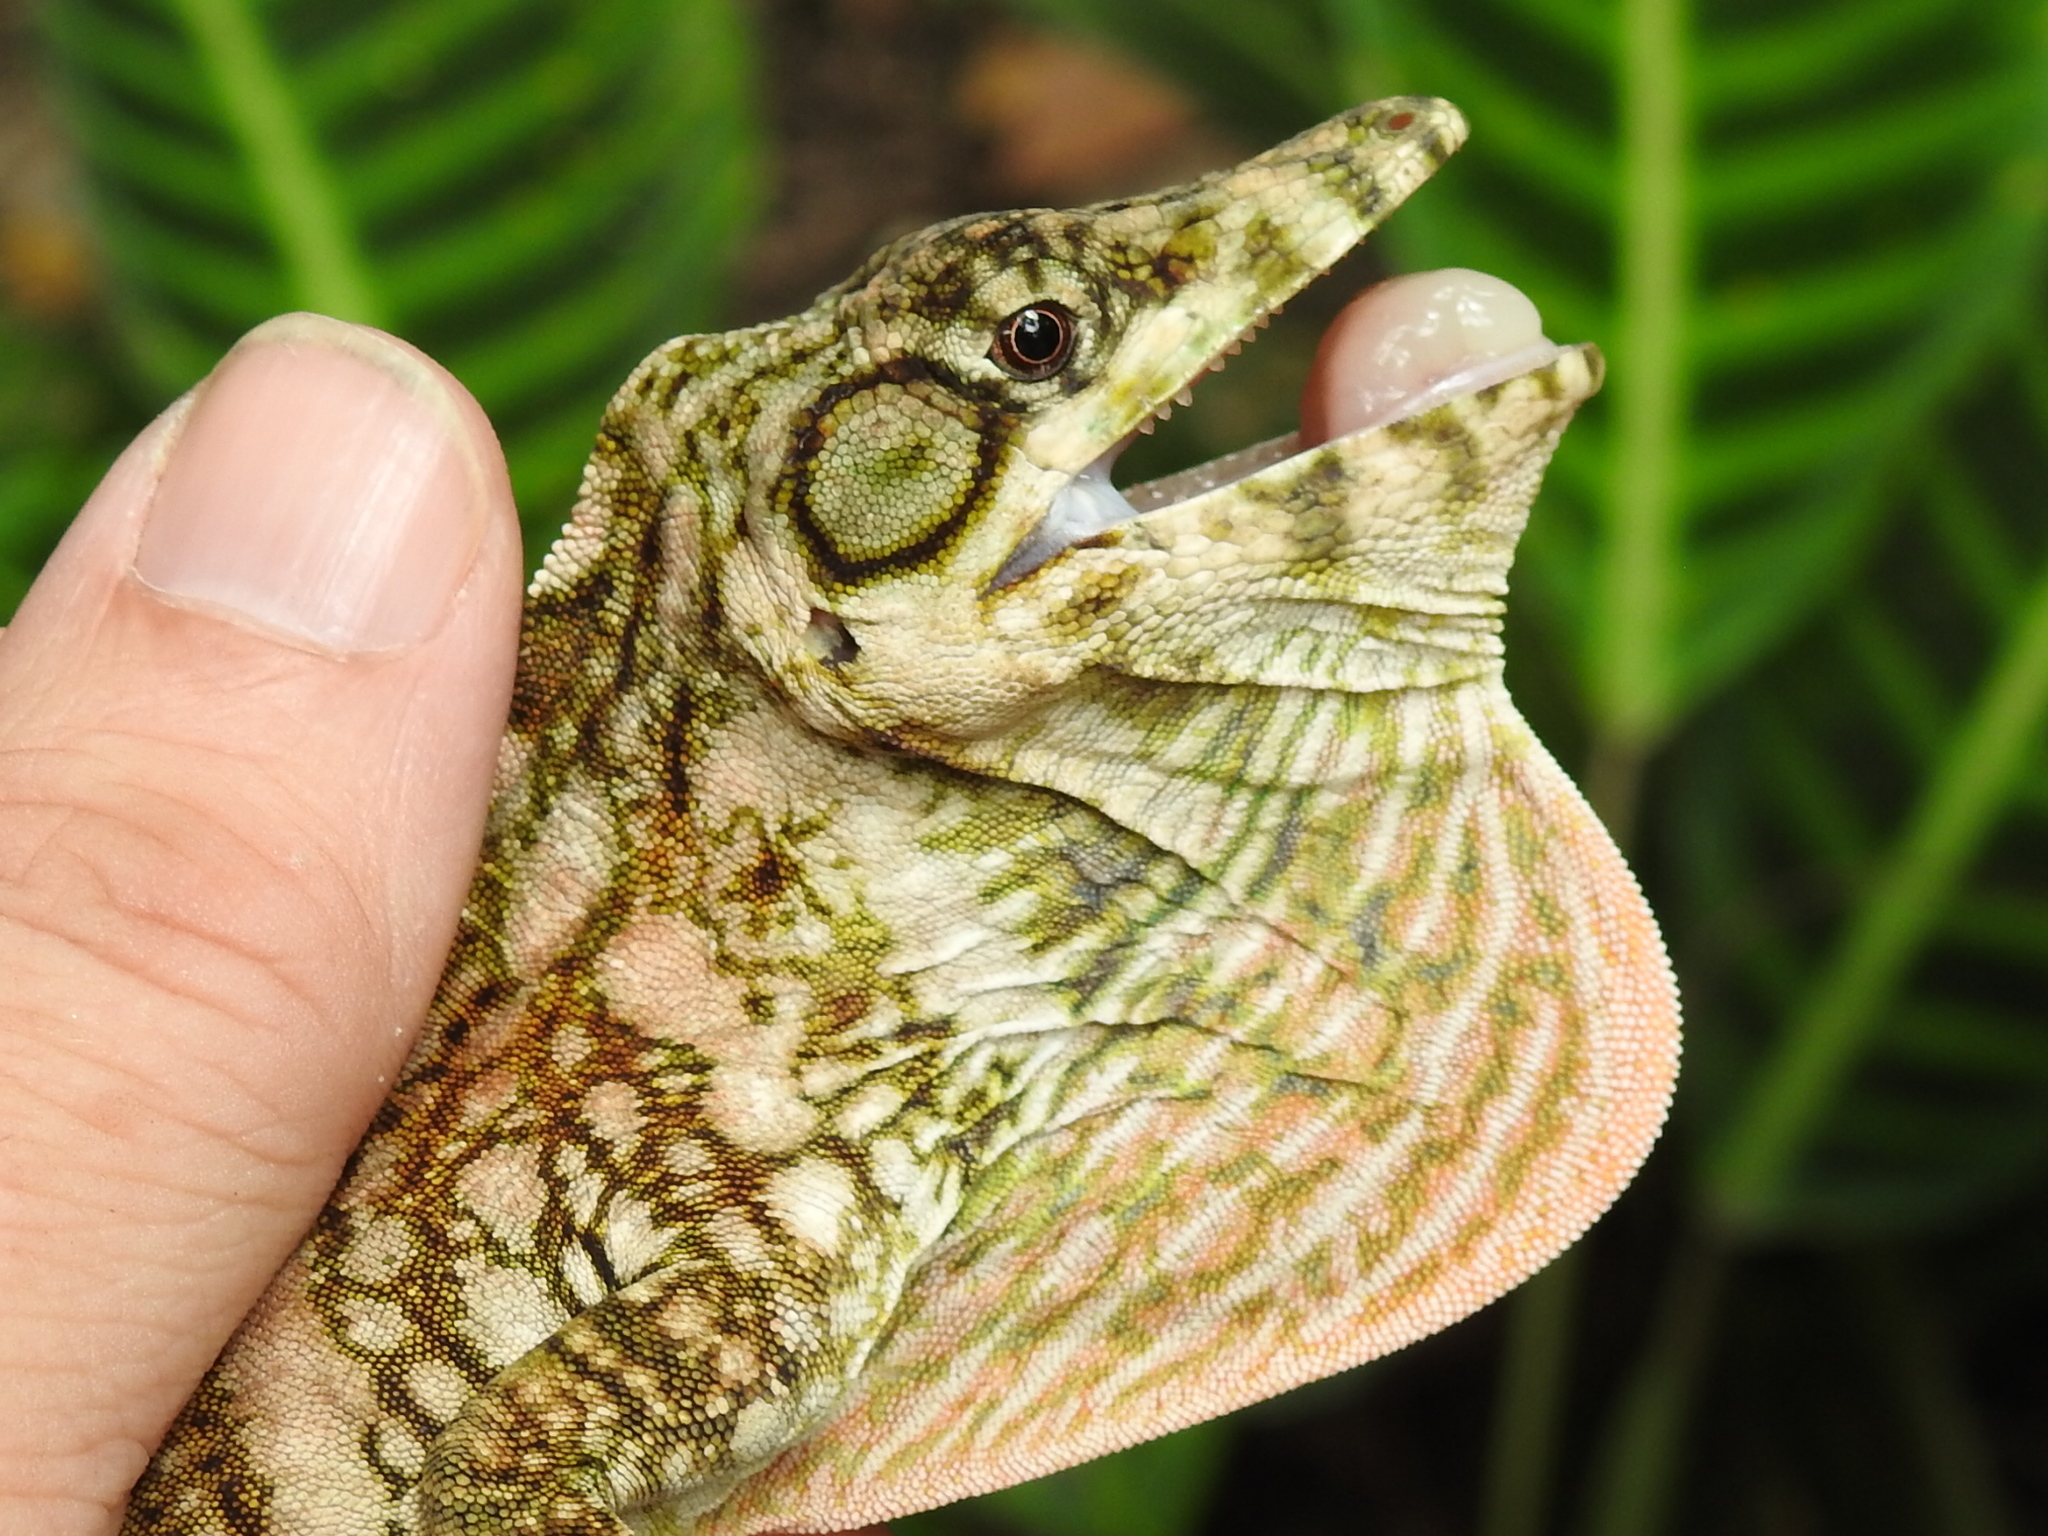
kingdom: Animalia
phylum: Chordata
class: Squamata
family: Dactyloidae
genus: Anolis
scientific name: Anolis savagei
